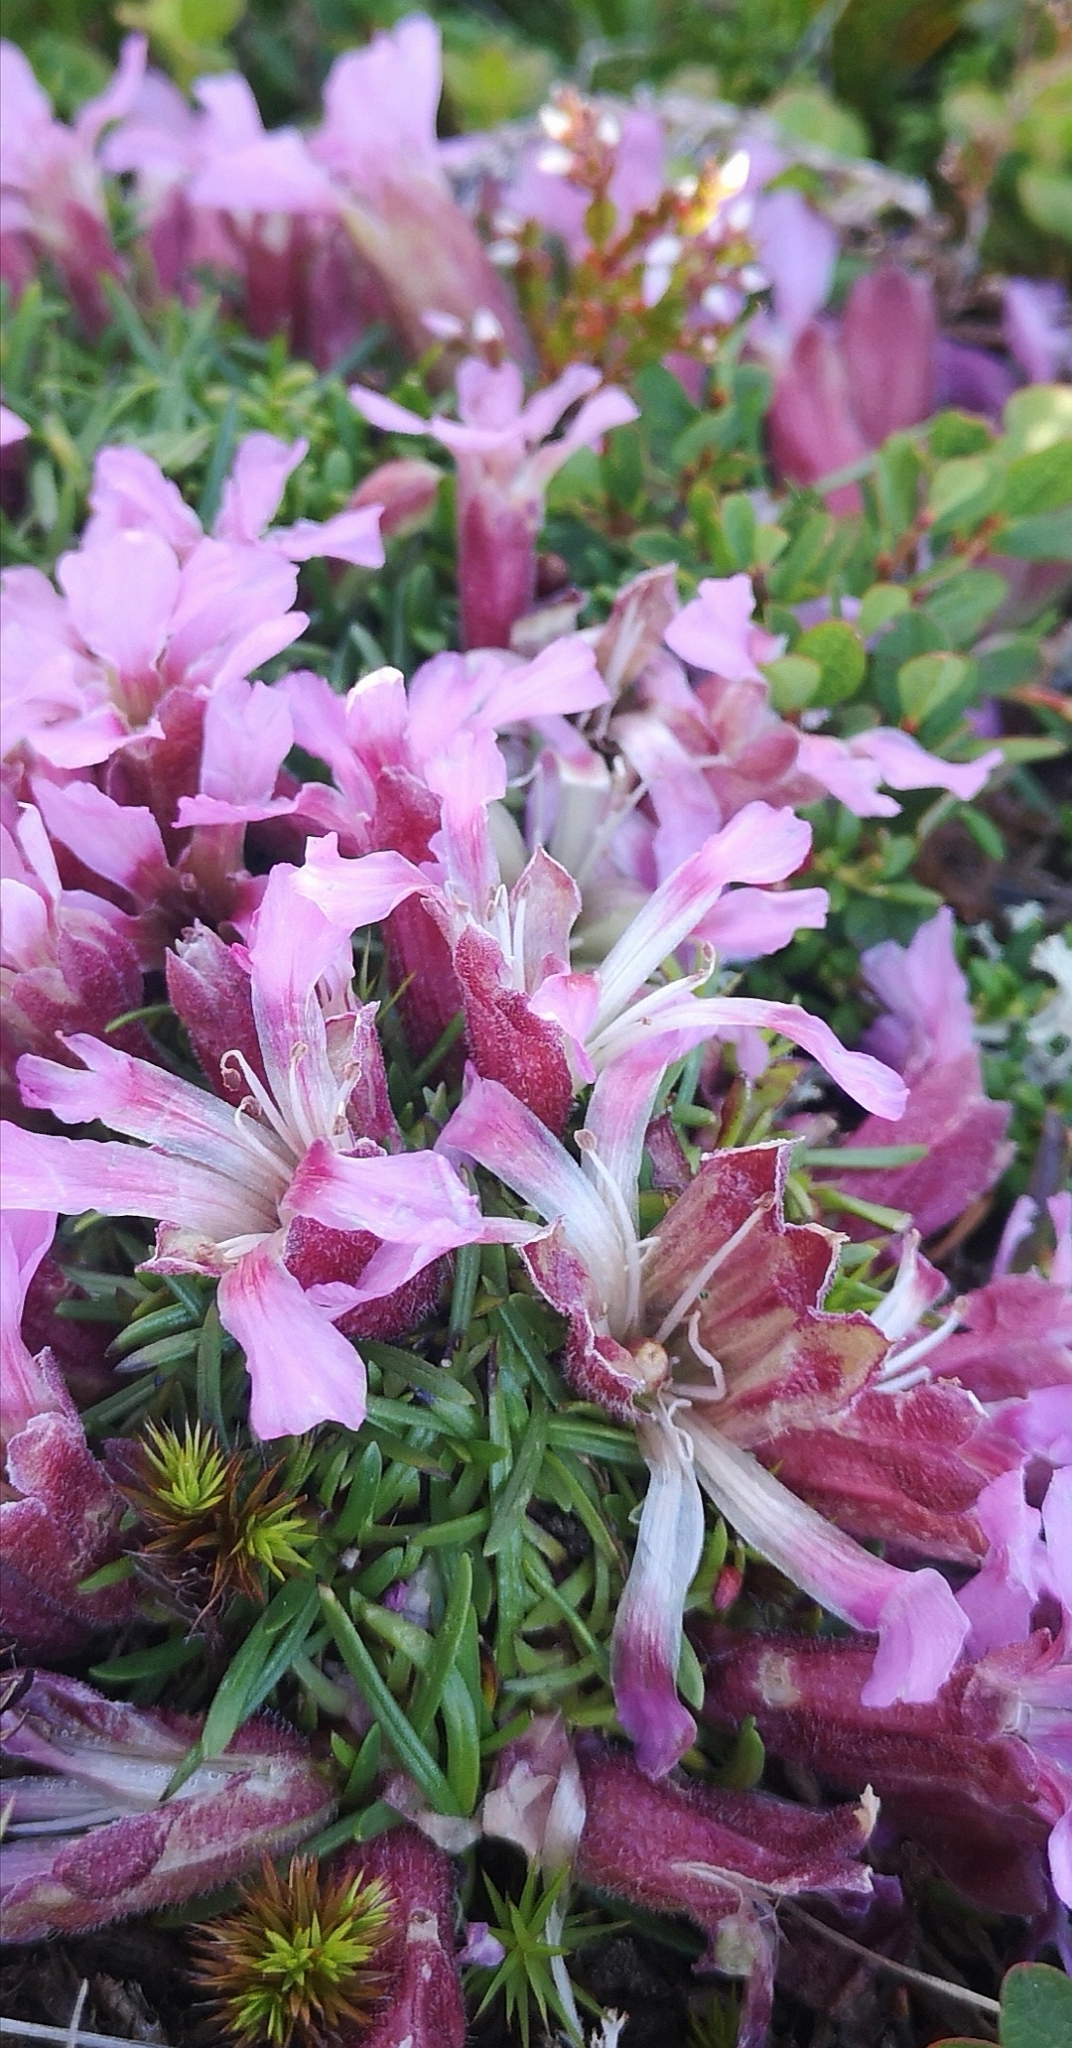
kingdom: Plantae
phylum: Tracheophyta
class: Magnoliopsida
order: Caryophyllales
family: Caryophyllaceae
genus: Saponaria
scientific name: Saponaria pumila
